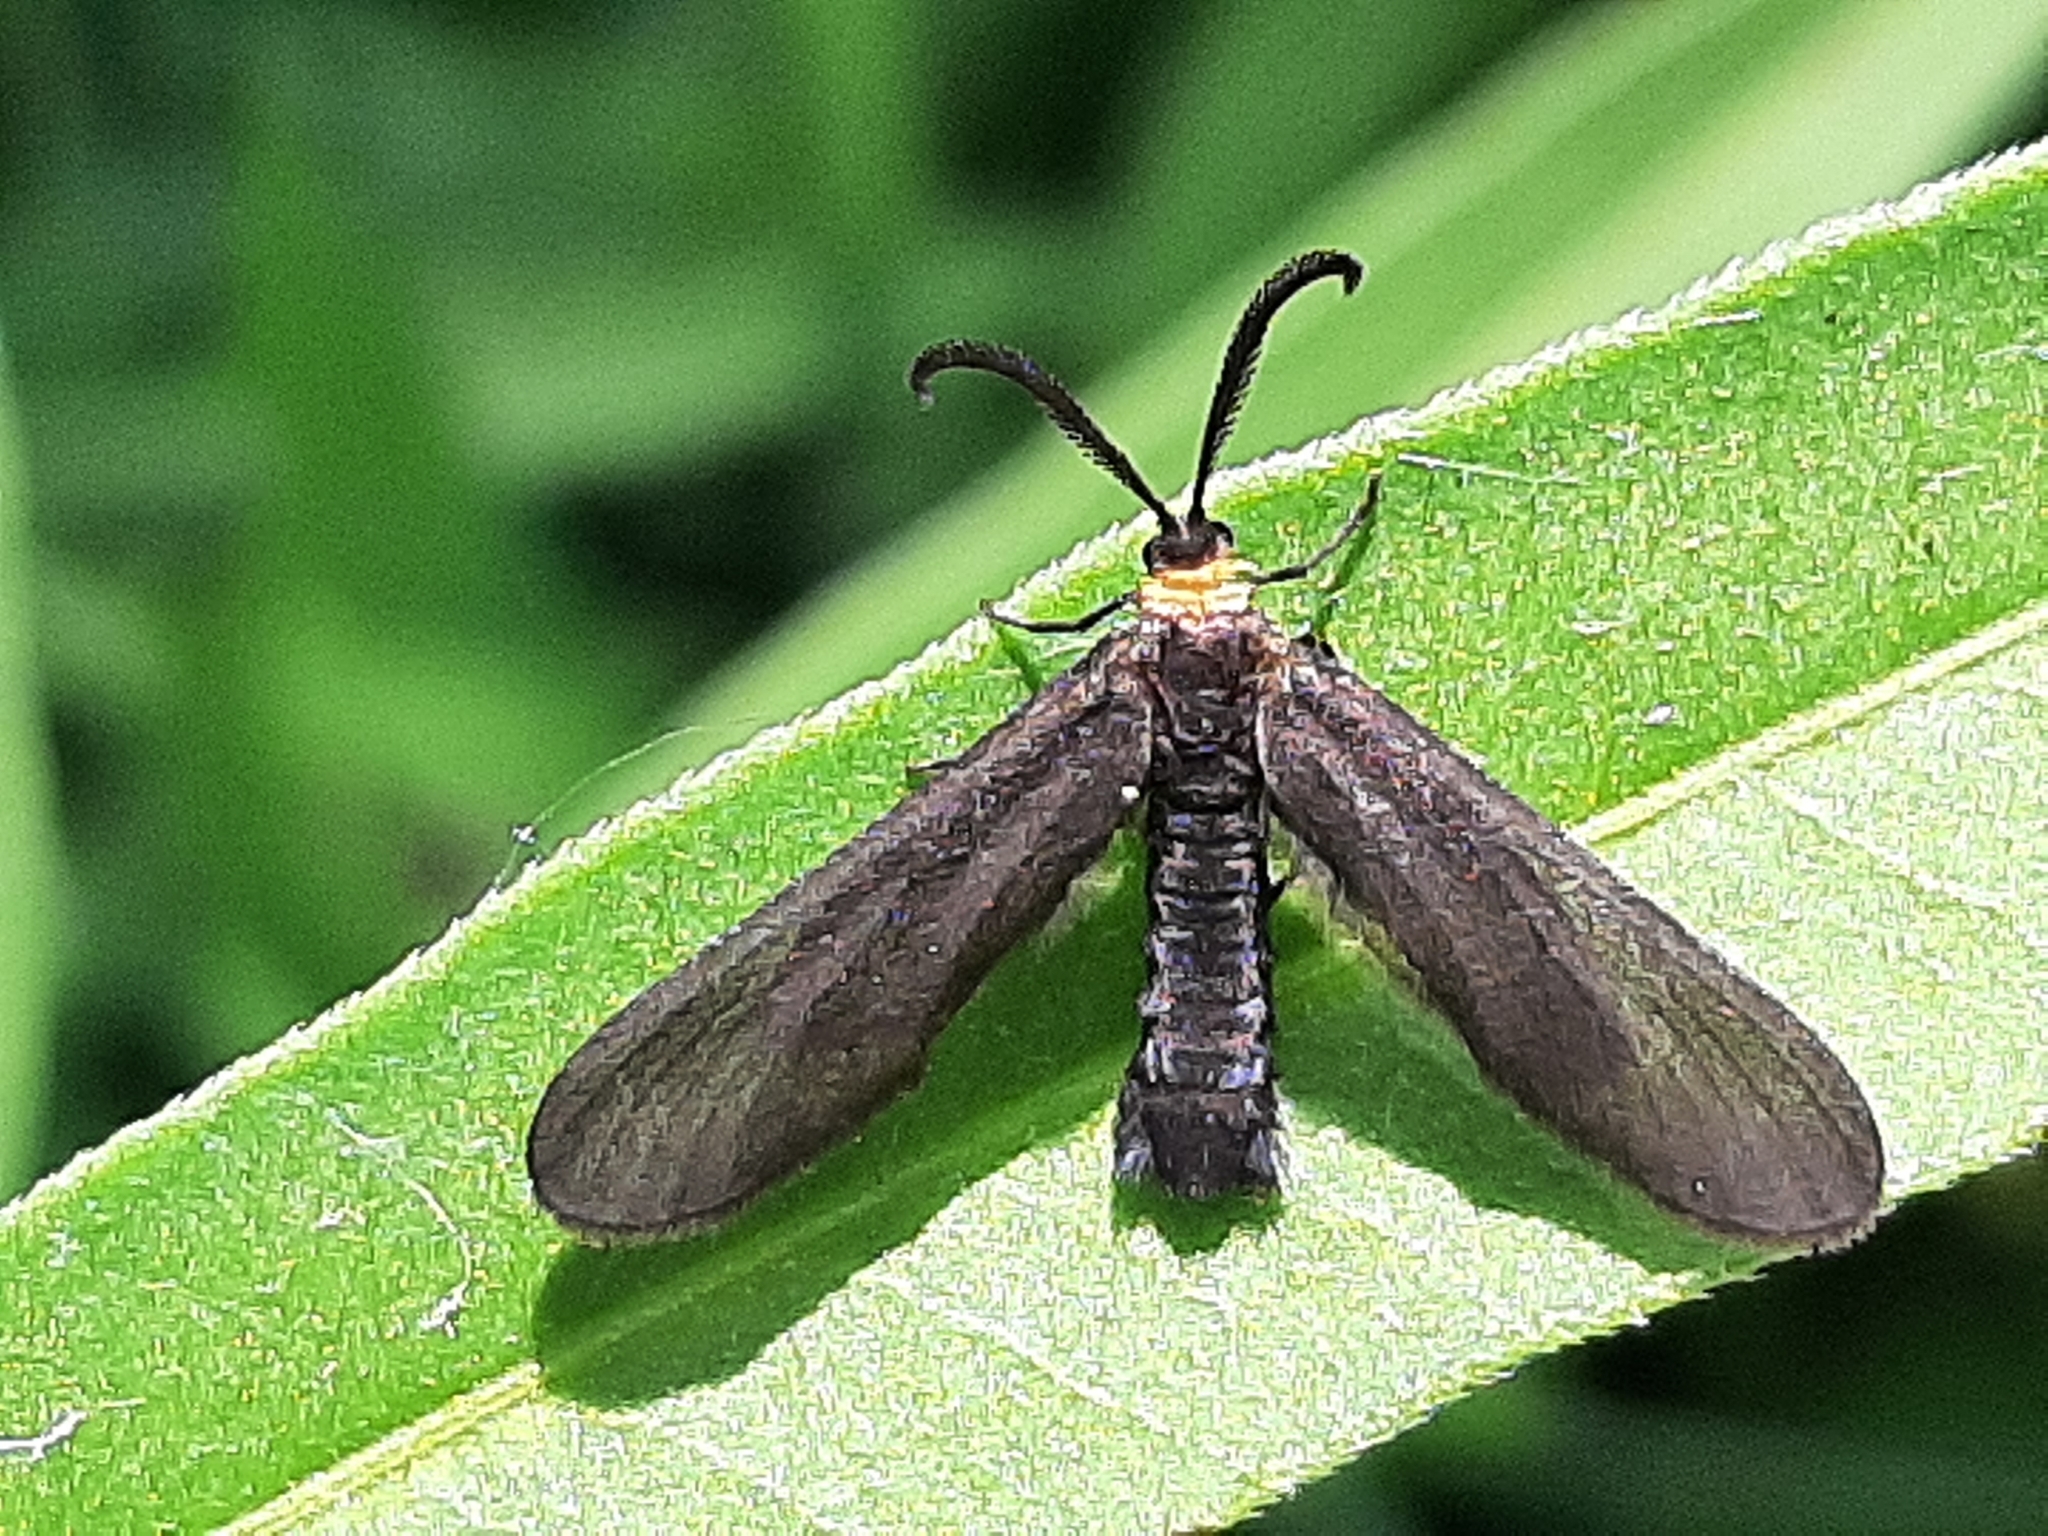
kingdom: Animalia
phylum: Arthropoda
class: Insecta
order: Lepidoptera
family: Zygaenidae
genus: Harrisina
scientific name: Harrisina americana
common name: Grapeleaf skeletonizer moth
